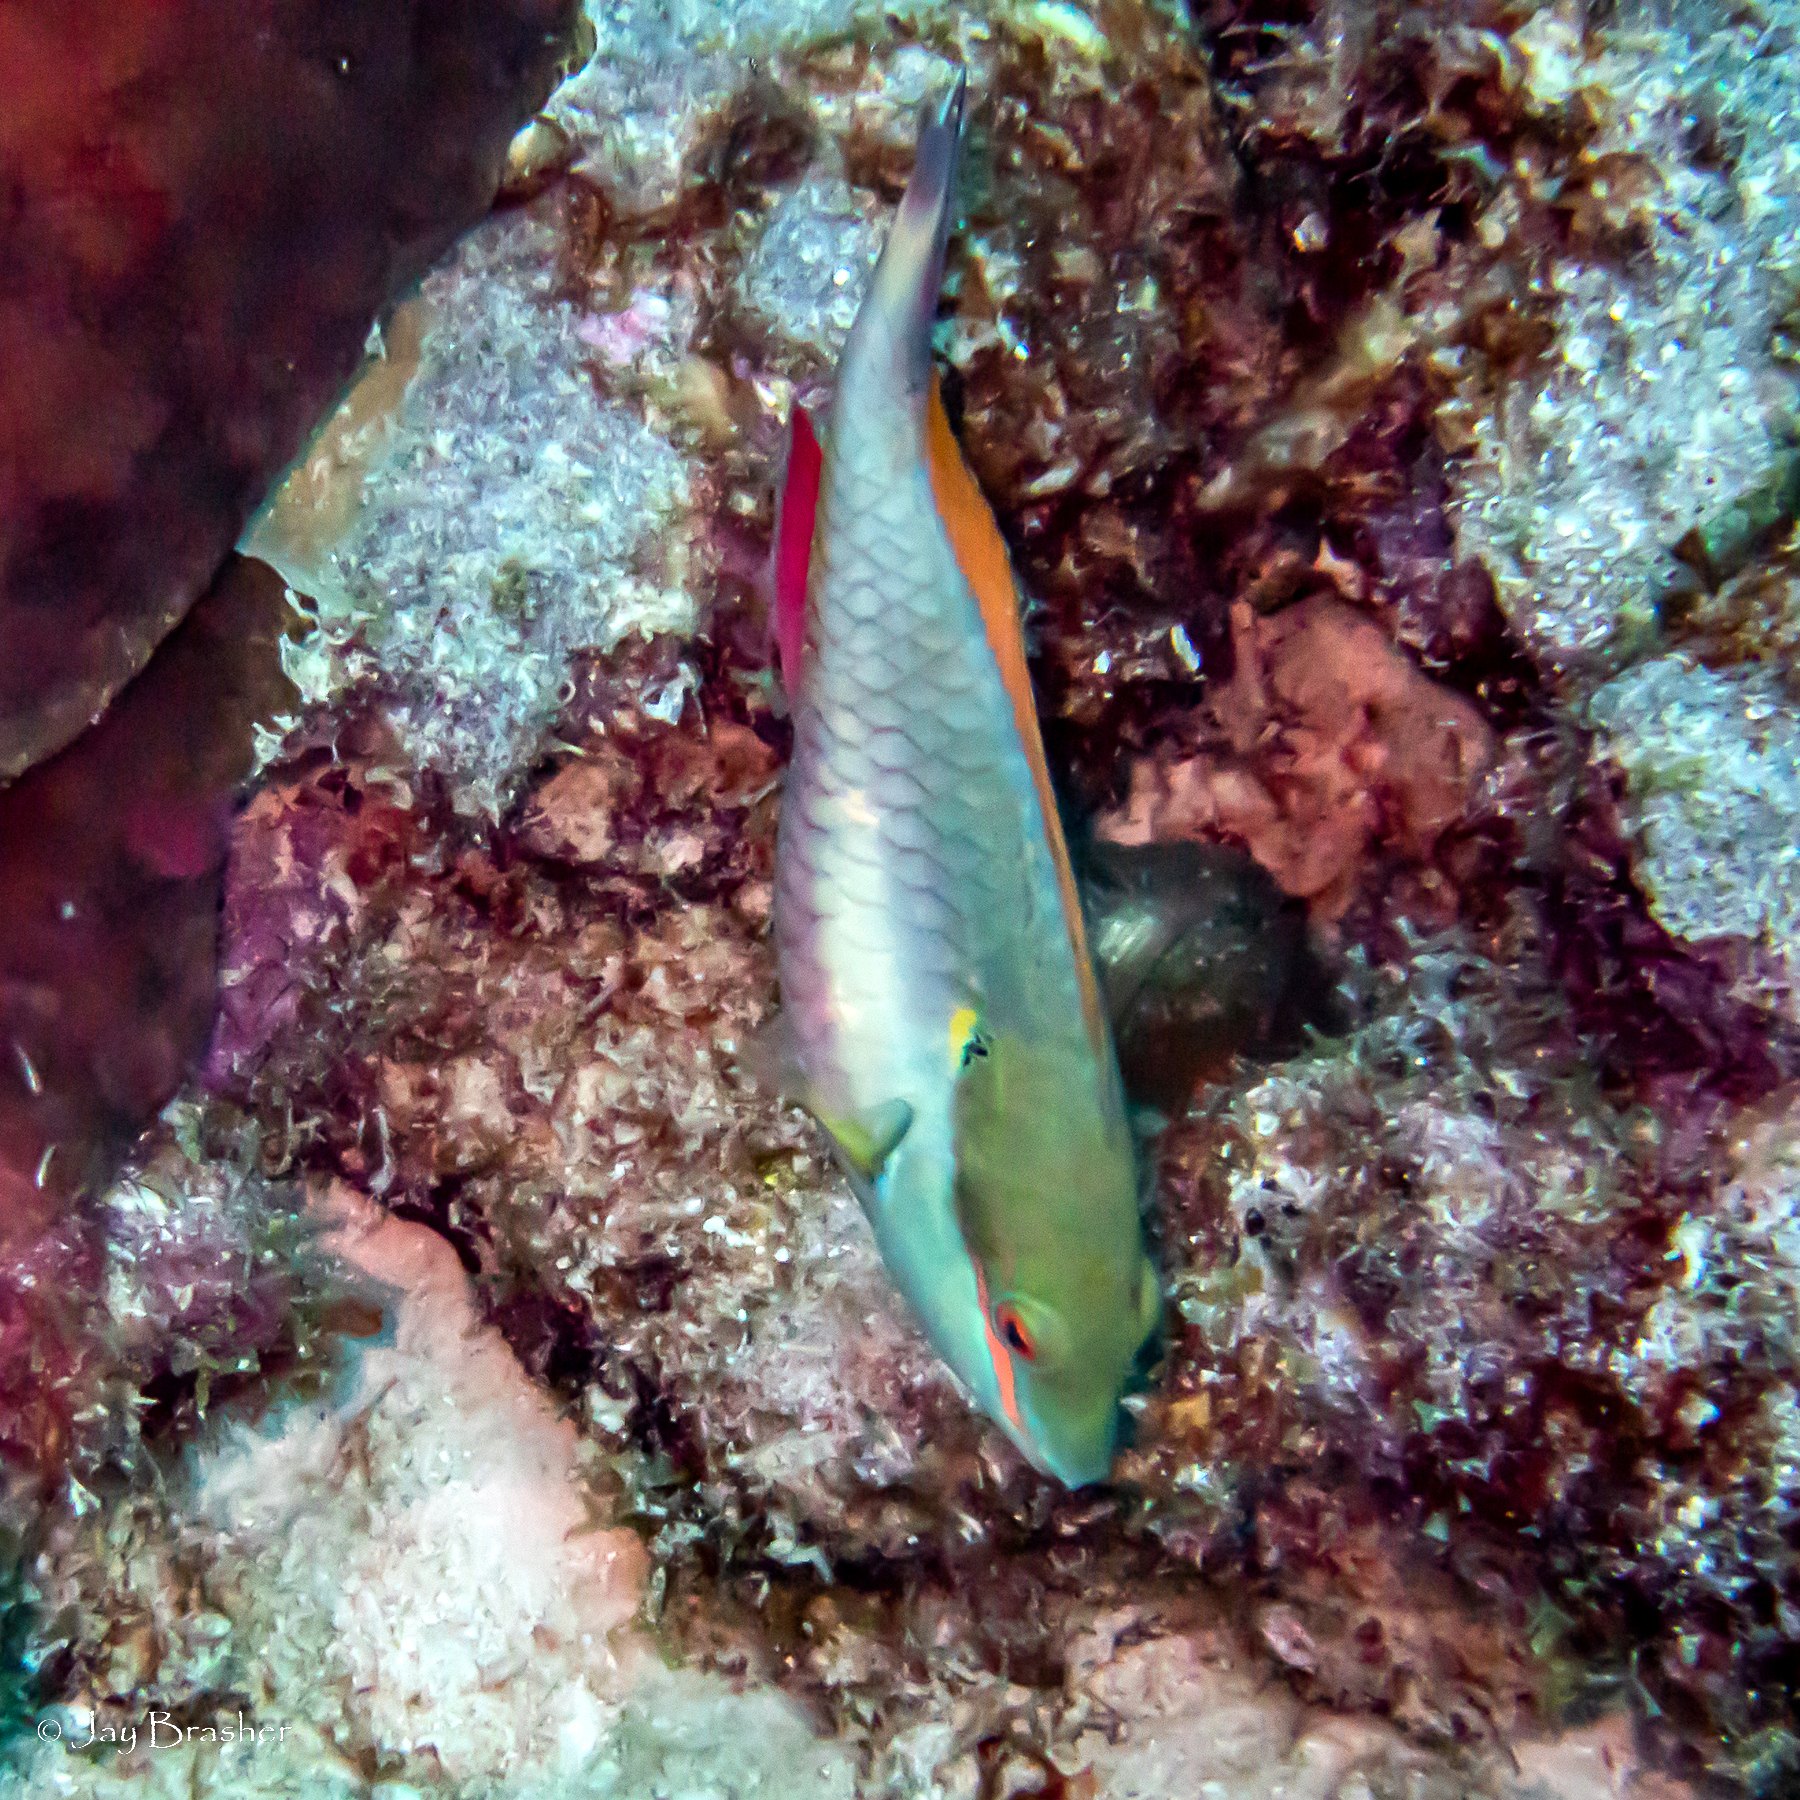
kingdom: Animalia
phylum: Chordata
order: Perciformes
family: Scaridae
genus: Sparisoma
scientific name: Sparisoma aurofrenatum
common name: Redband parrotfish
